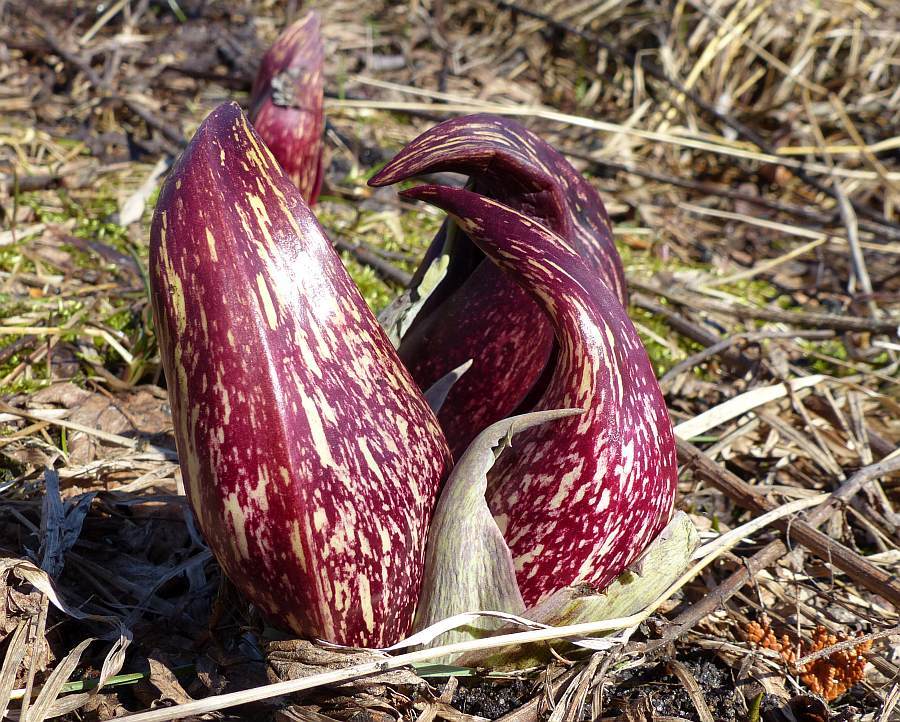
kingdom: Plantae
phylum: Tracheophyta
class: Liliopsida
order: Alismatales
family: Araceae
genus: Symplocarpus
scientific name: Symplocarpus foetidus
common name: Eastern skunk cabbage
